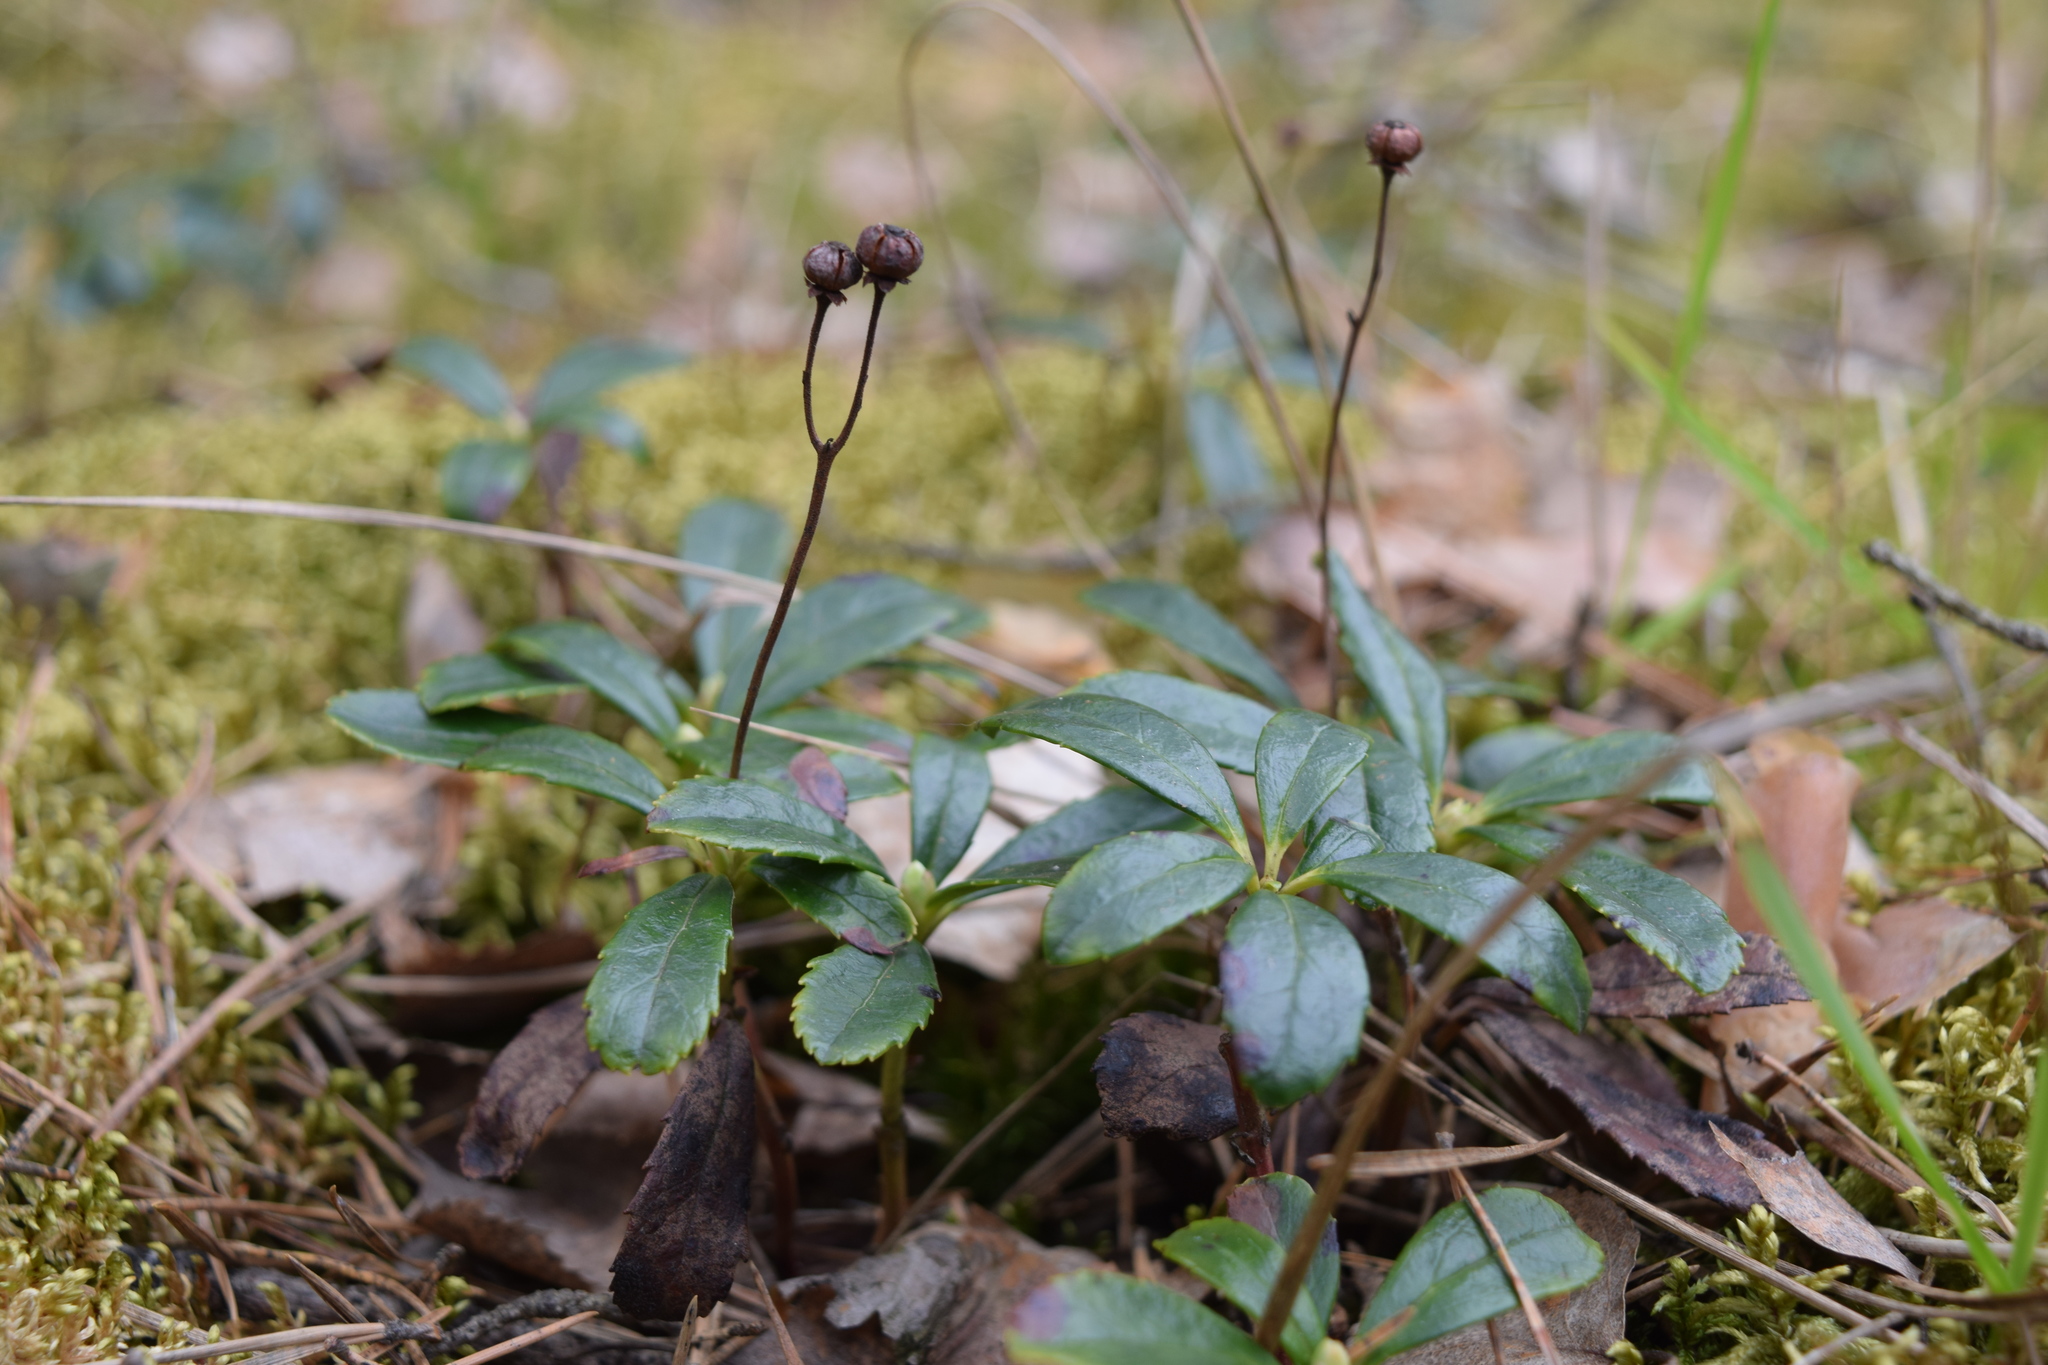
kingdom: Plantae
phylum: Tracheophyta
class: Magnoliopsida
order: Ericales
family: Ericaceae
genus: Chimaphila
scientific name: Chimaphila umbellata
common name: Pipsissewa
